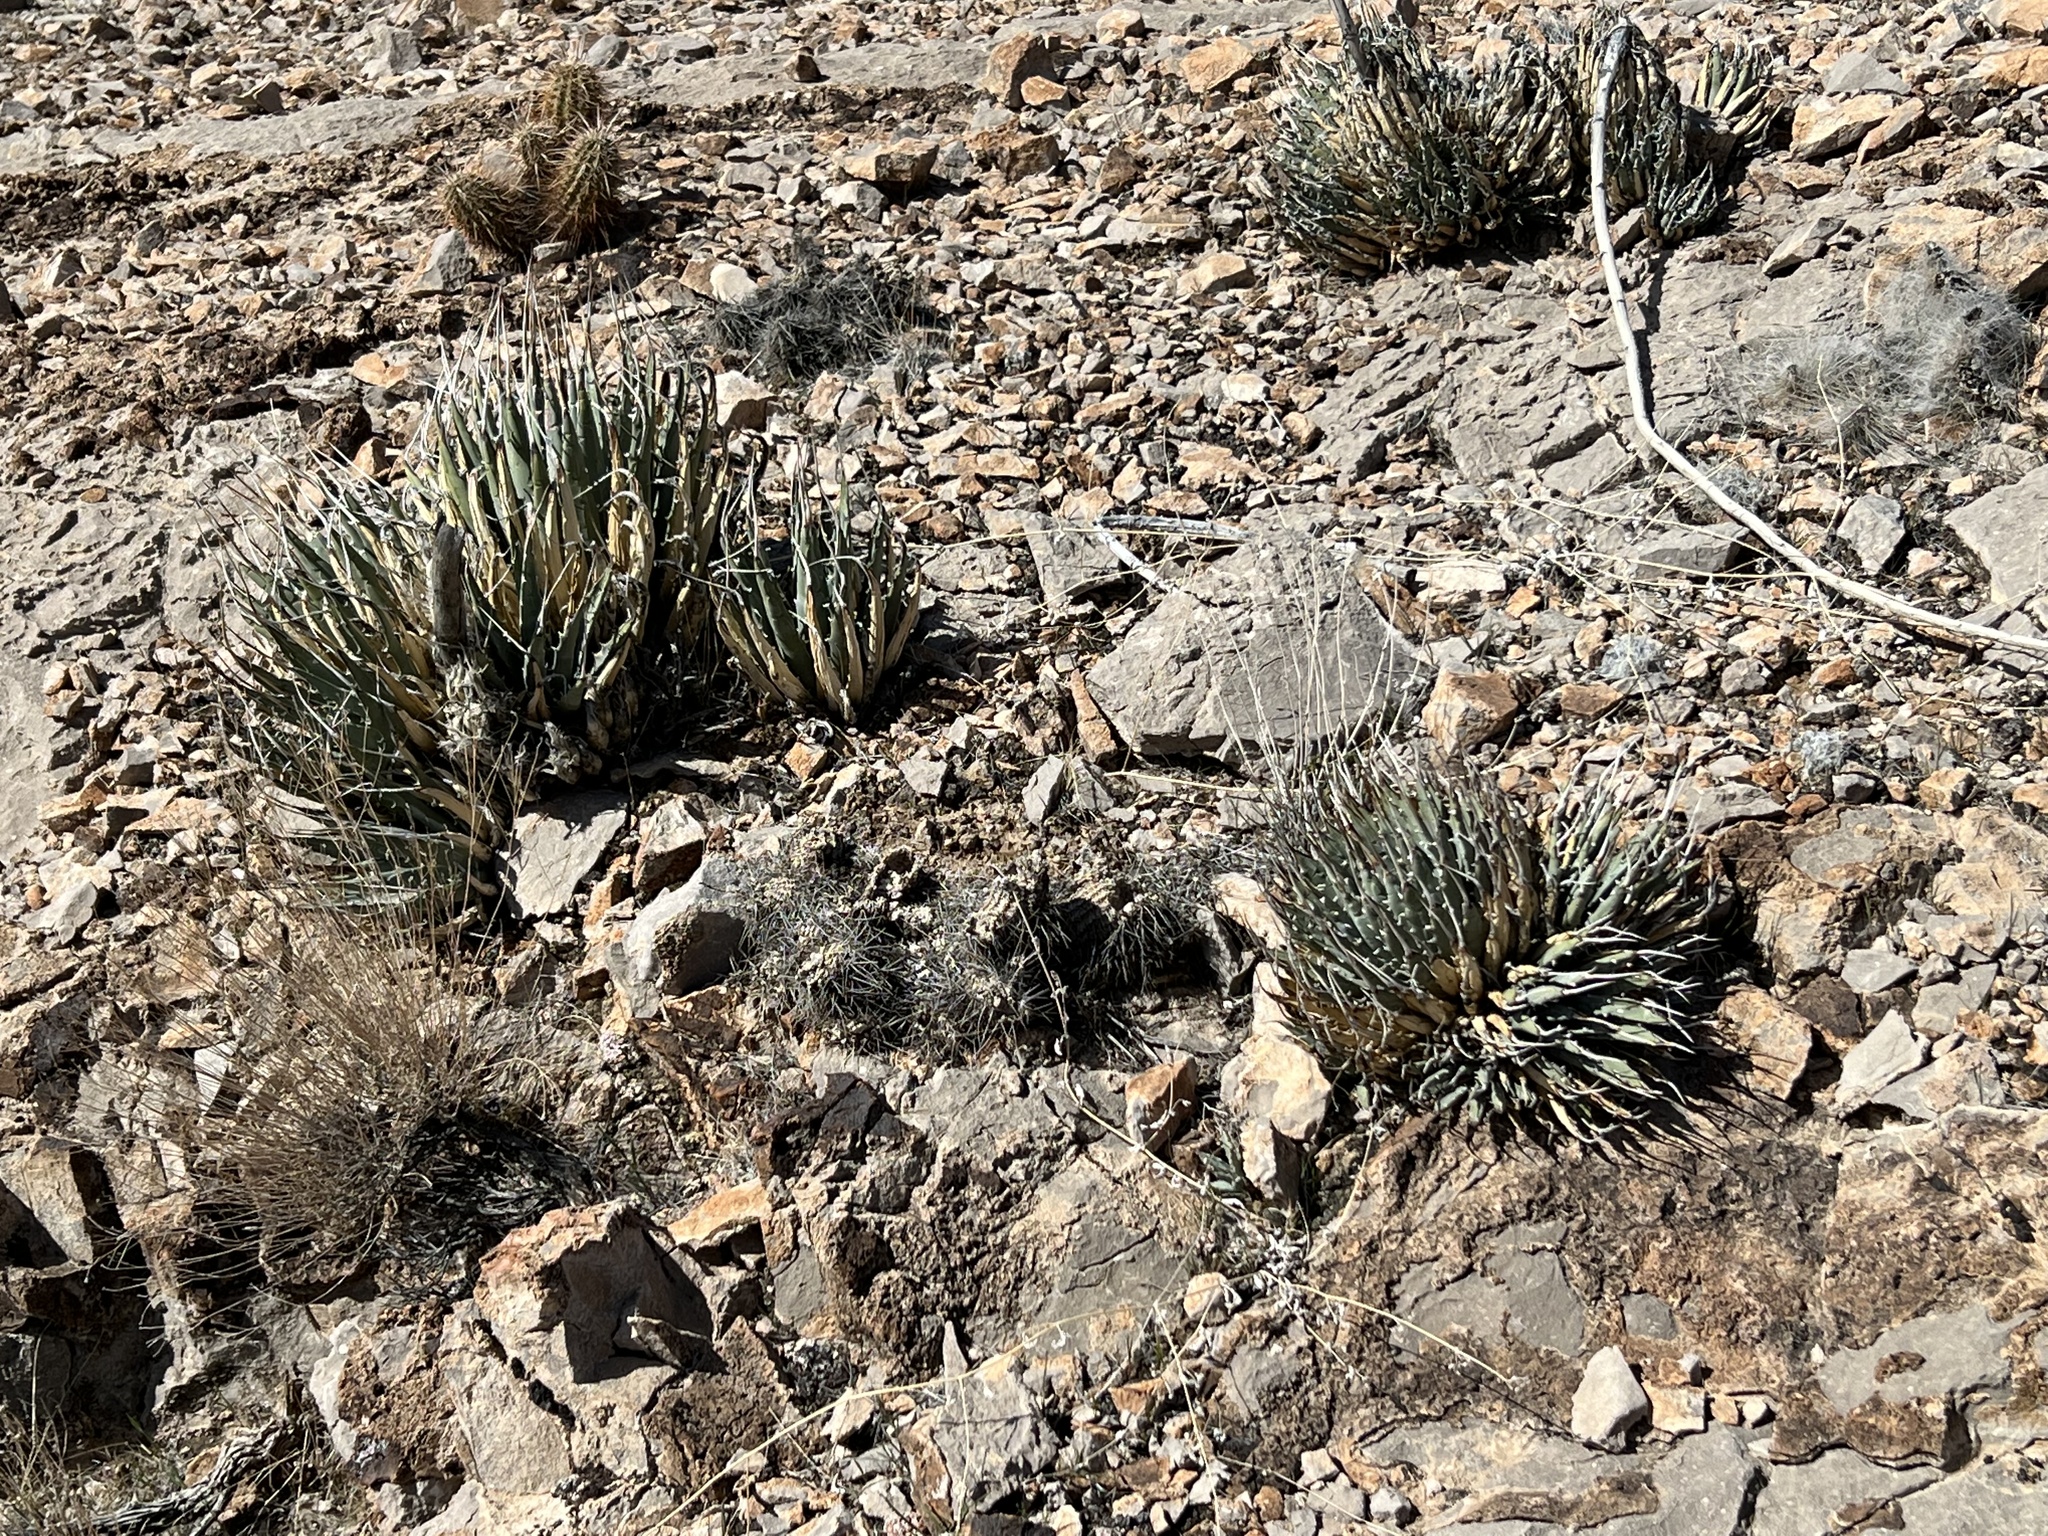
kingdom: Plantae
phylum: Tracheophyta
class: Liliopsida
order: Asparagales
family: Asparagaceae
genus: Agave
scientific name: Agave utahensis
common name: Utah agave
